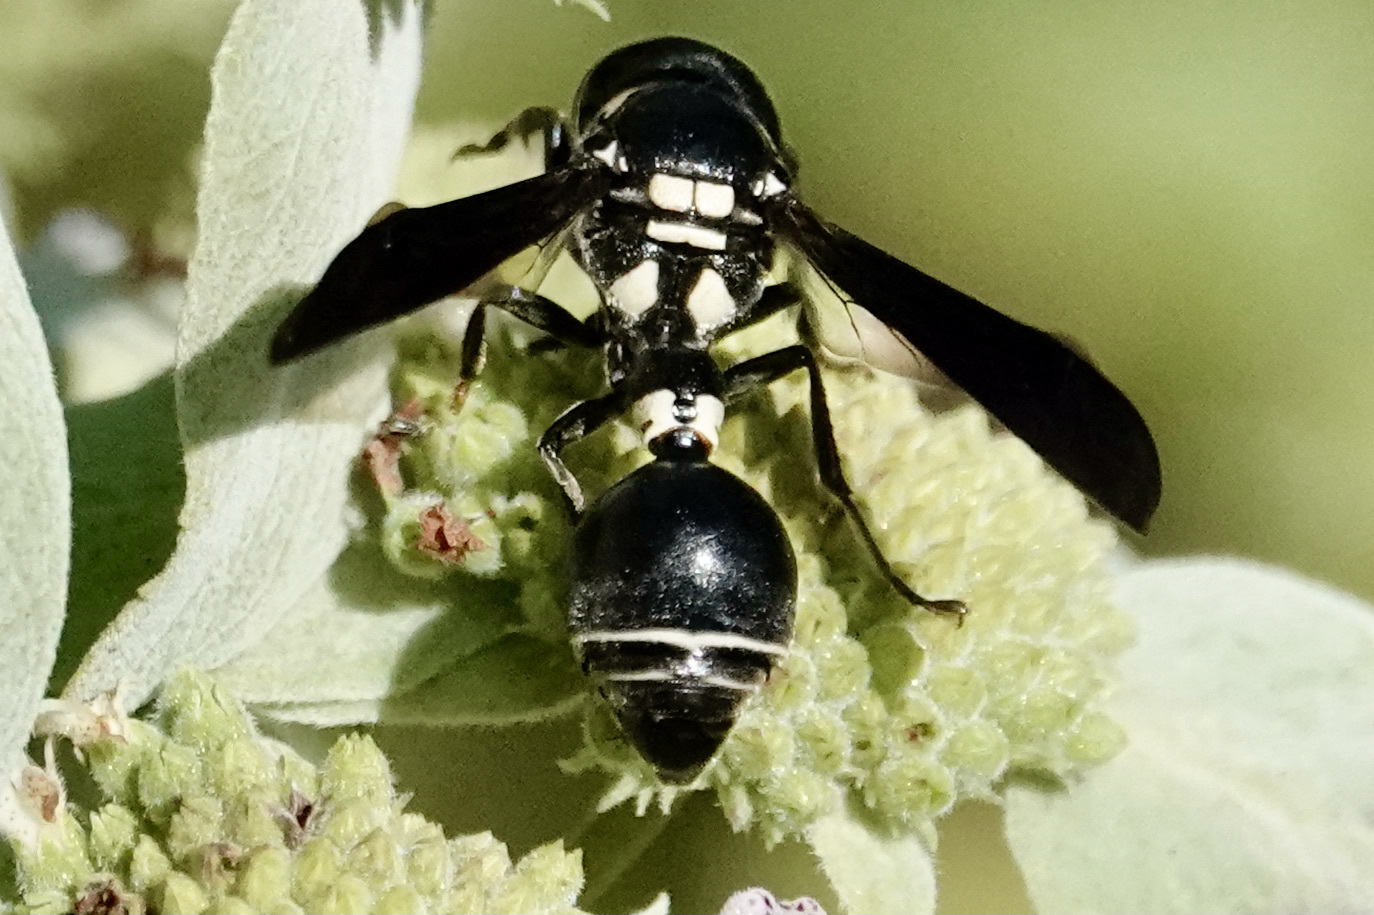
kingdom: Animalia
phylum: Arthropoda
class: Insecta
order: Hymenoptera
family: Eumenidae
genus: Zethus
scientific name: Zethus spinipes
